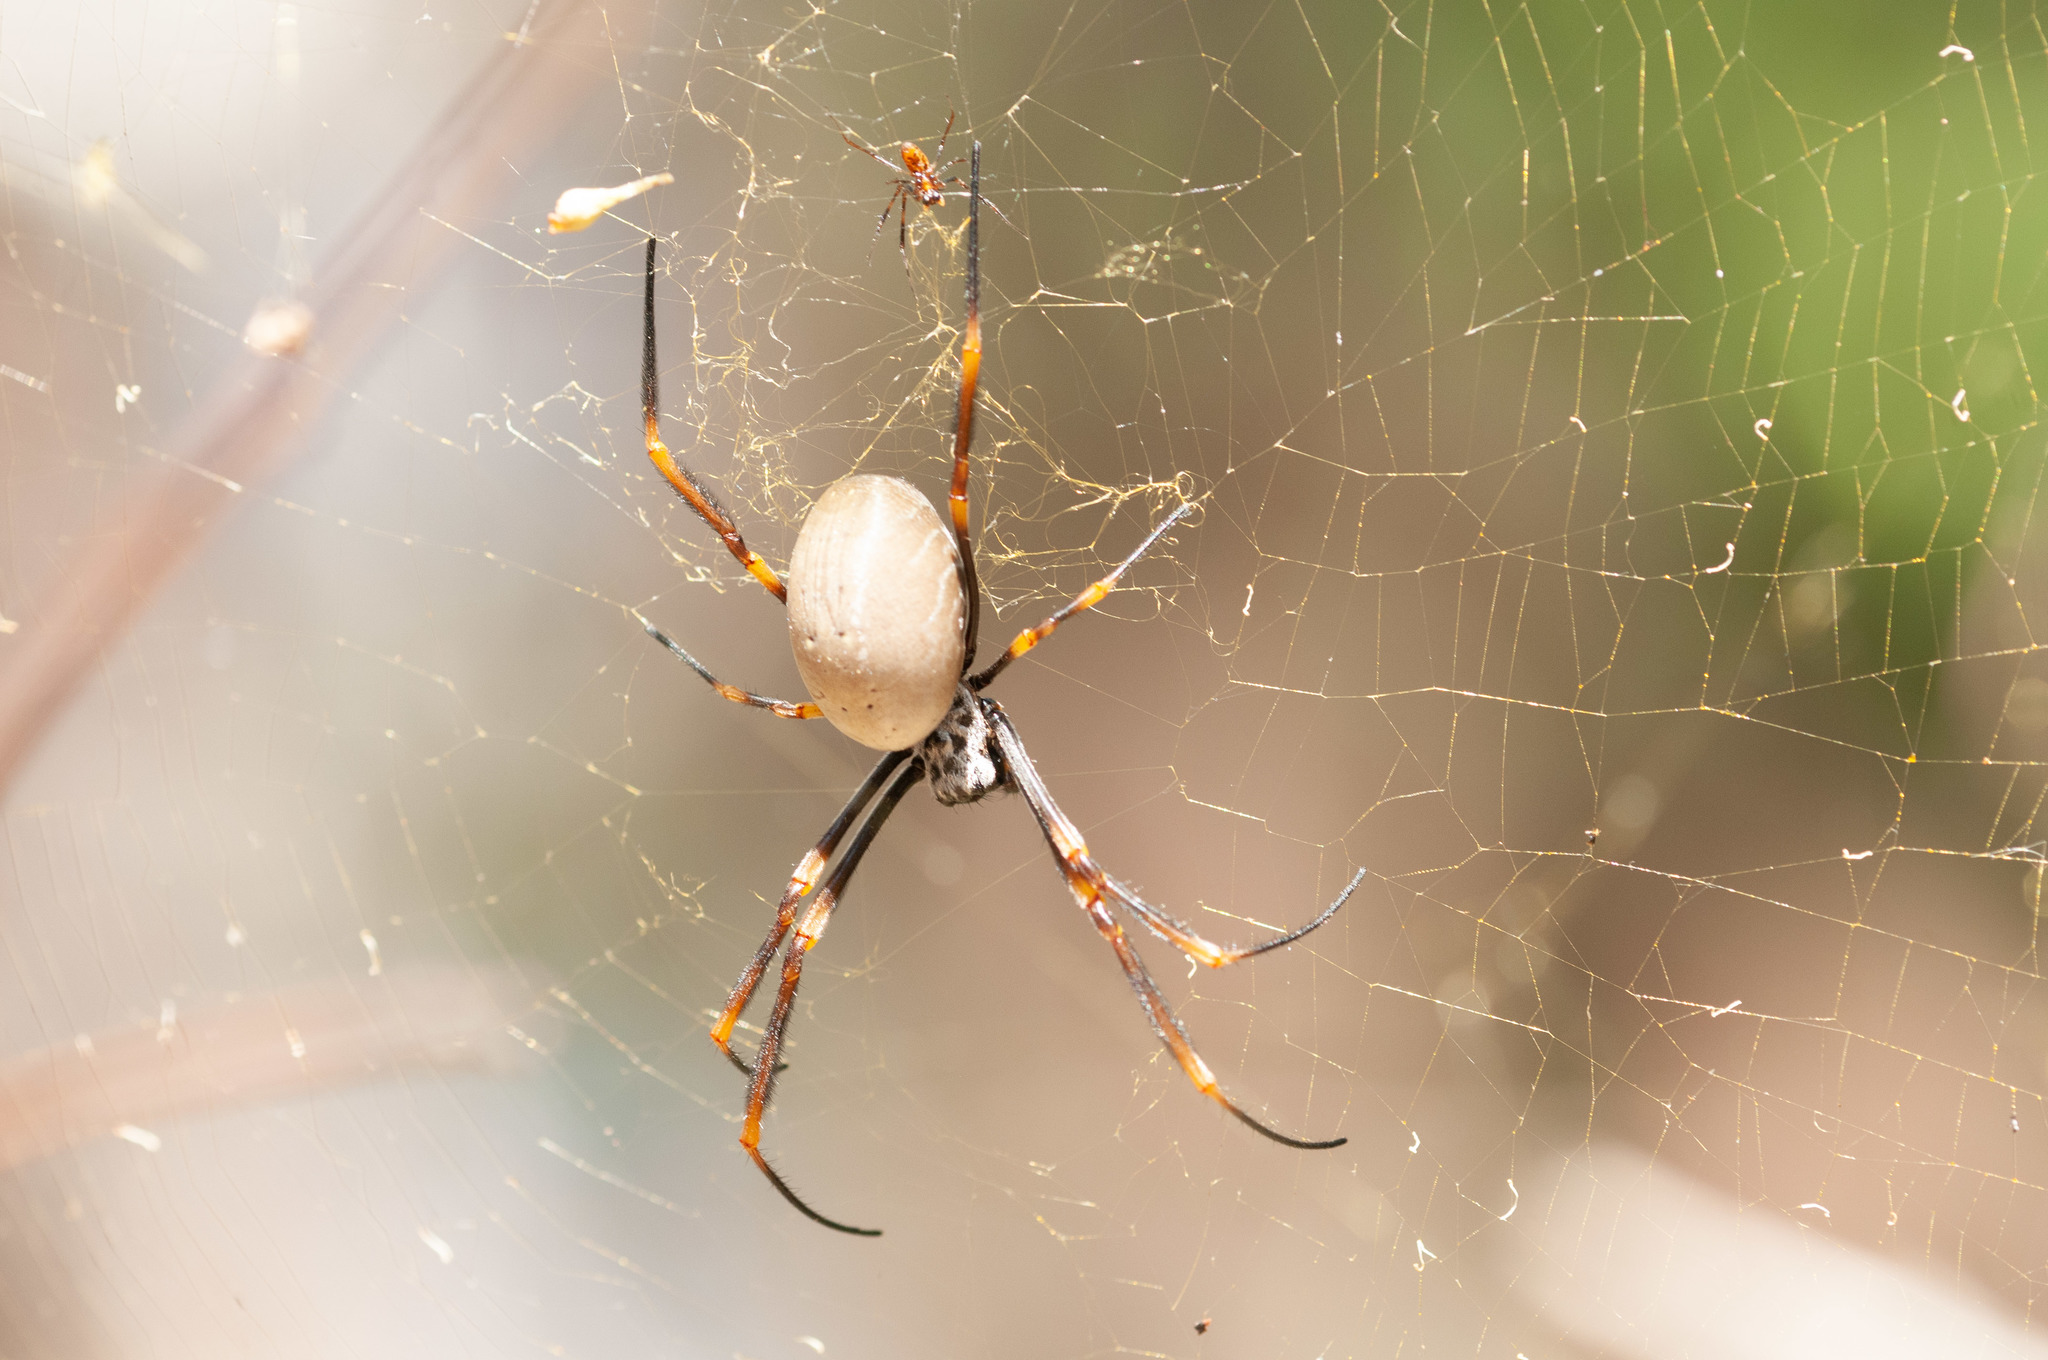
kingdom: Animalia
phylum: Arthropoda
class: Arachnida
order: Araneae
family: Araneidae
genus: Trichonephila
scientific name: Trichonephila plumipes
